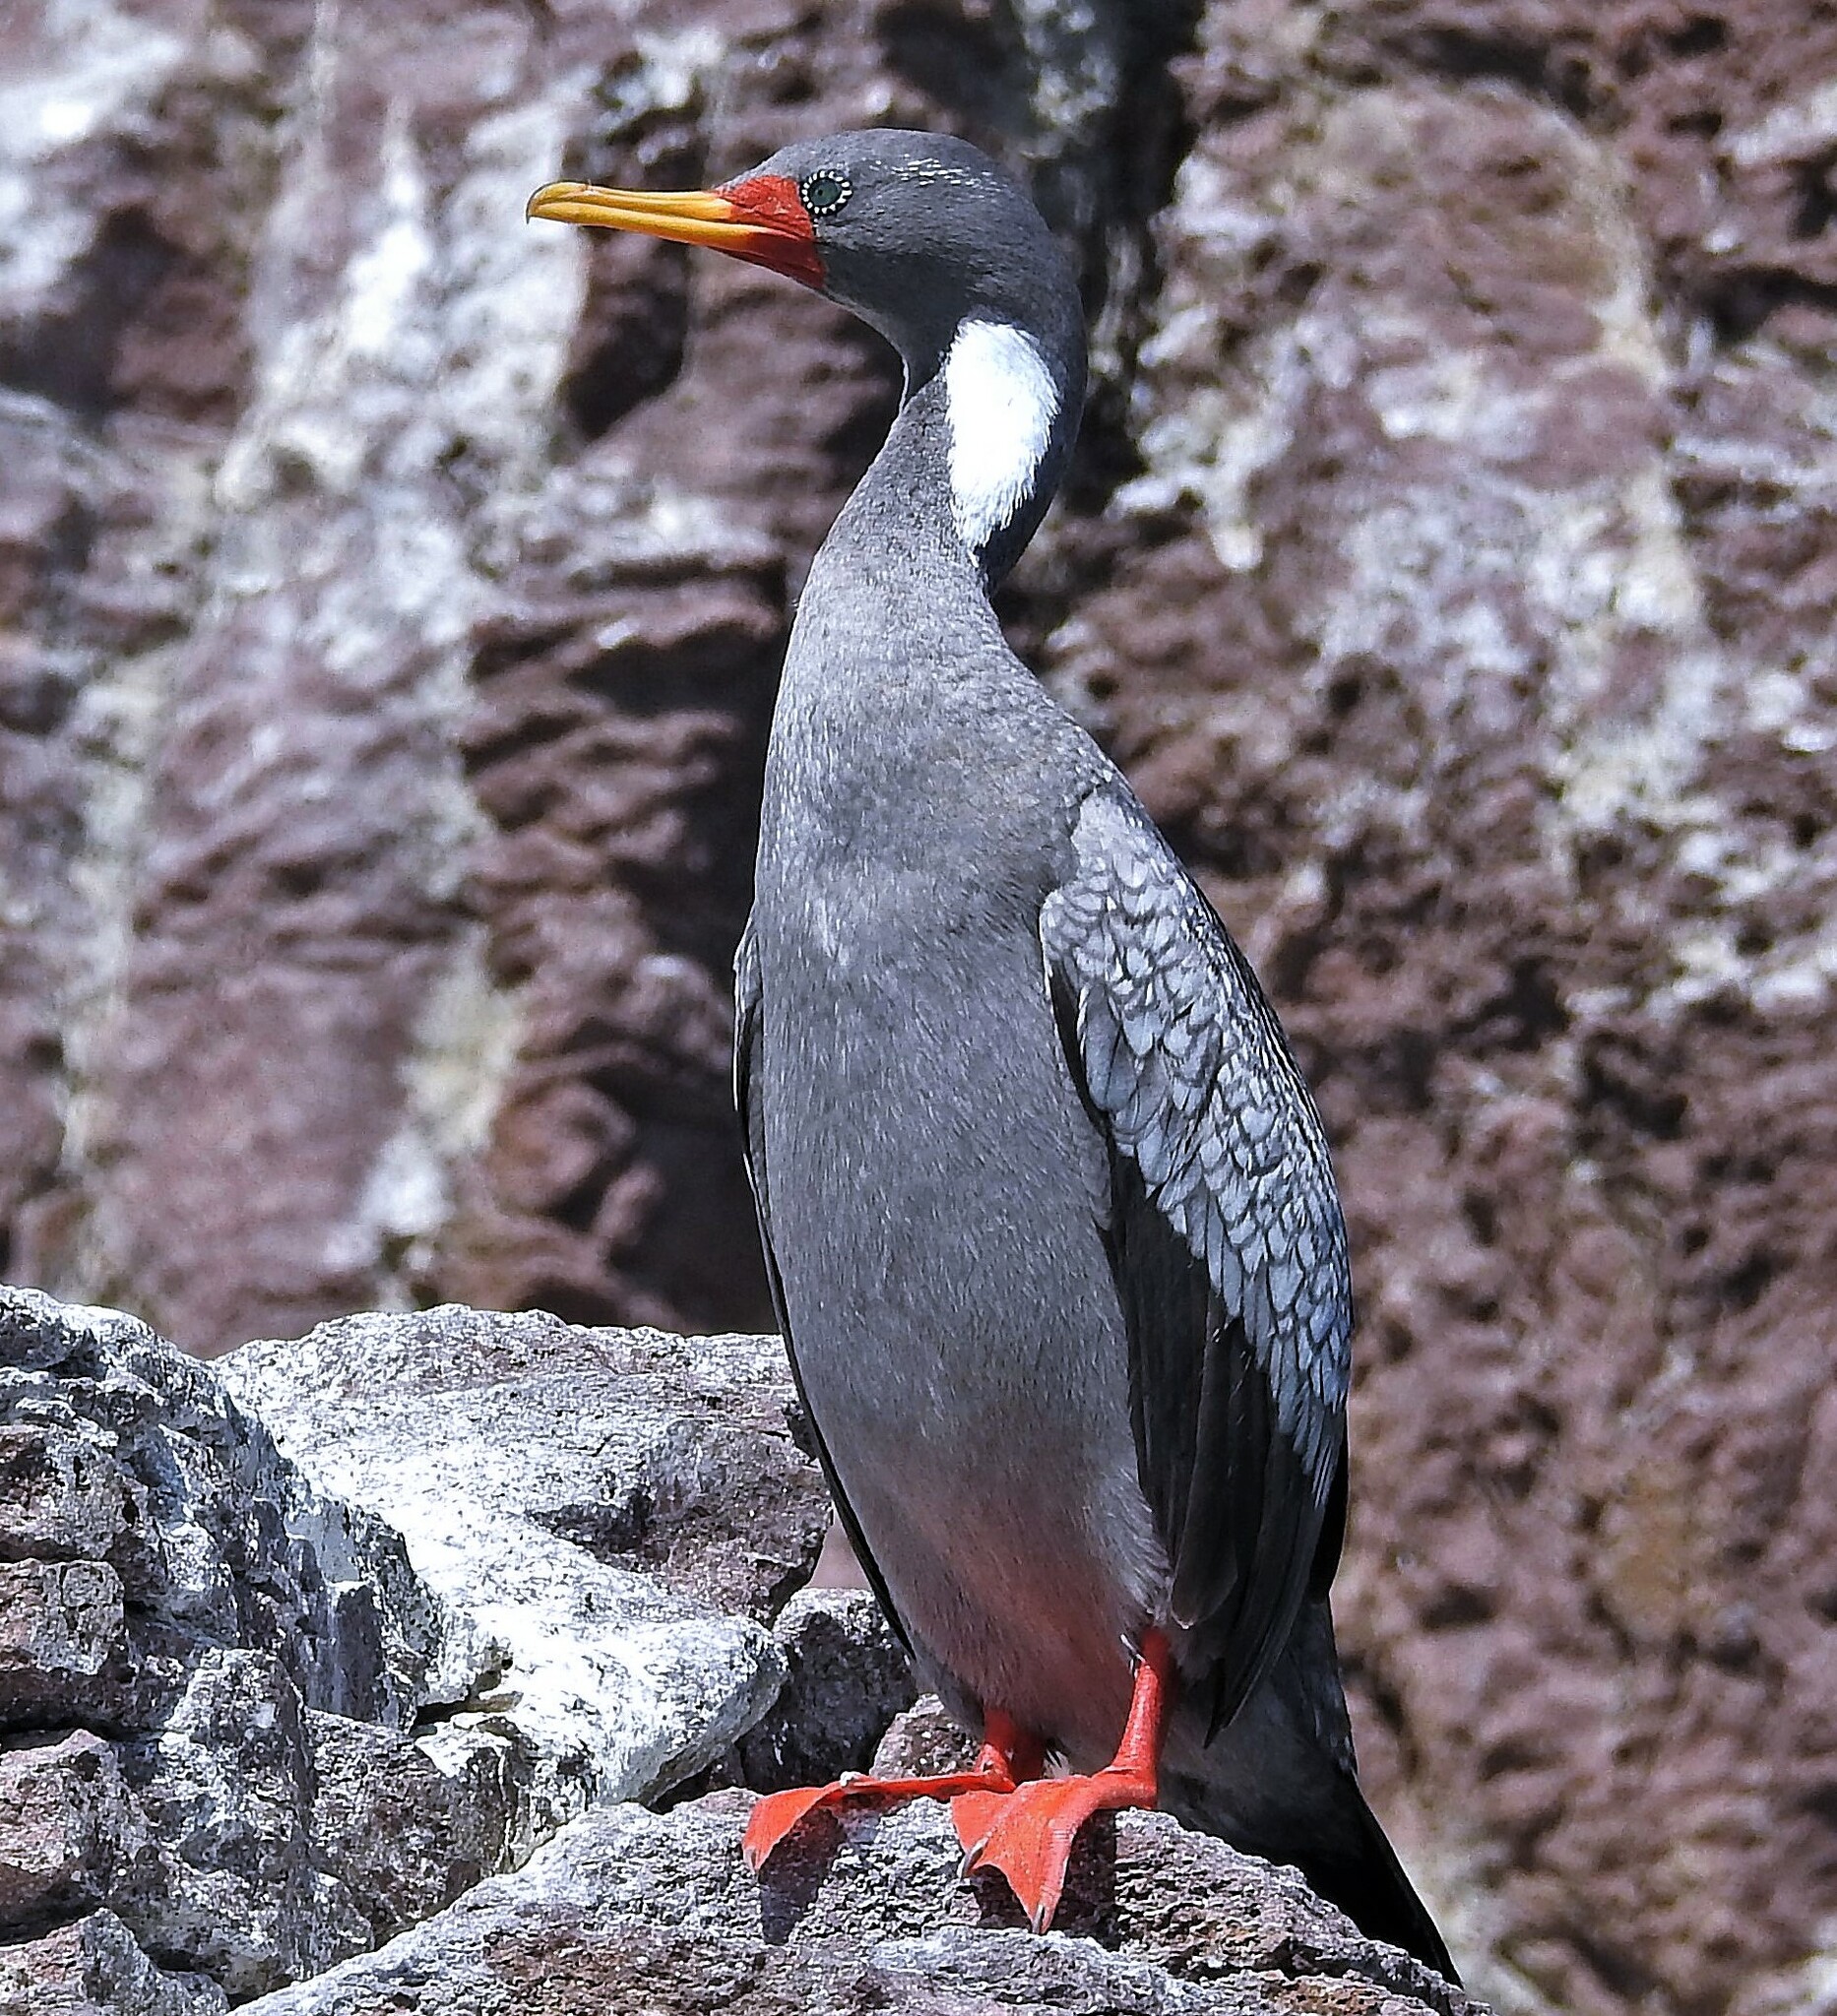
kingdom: Animalia
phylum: Chordata
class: Aves
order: Suliformes
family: Phalacrocoracidae
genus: Phalacrocorax
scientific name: Phalacrocorax gaimardi
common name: Red-legged cormorant
